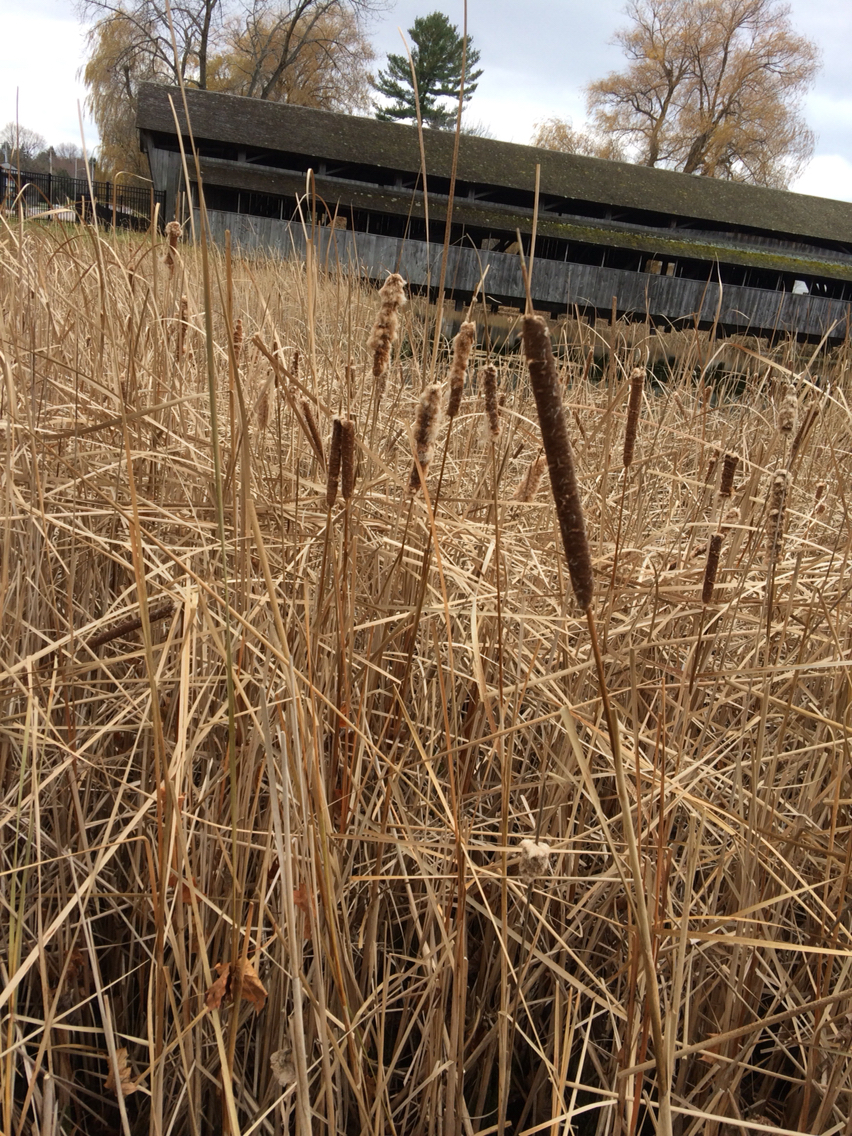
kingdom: Plantae
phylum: Tracheophyta
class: Liliopsida
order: Poales
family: Typhaceae
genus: Typha
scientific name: Typha angustifolia
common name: Lesser bulrush
